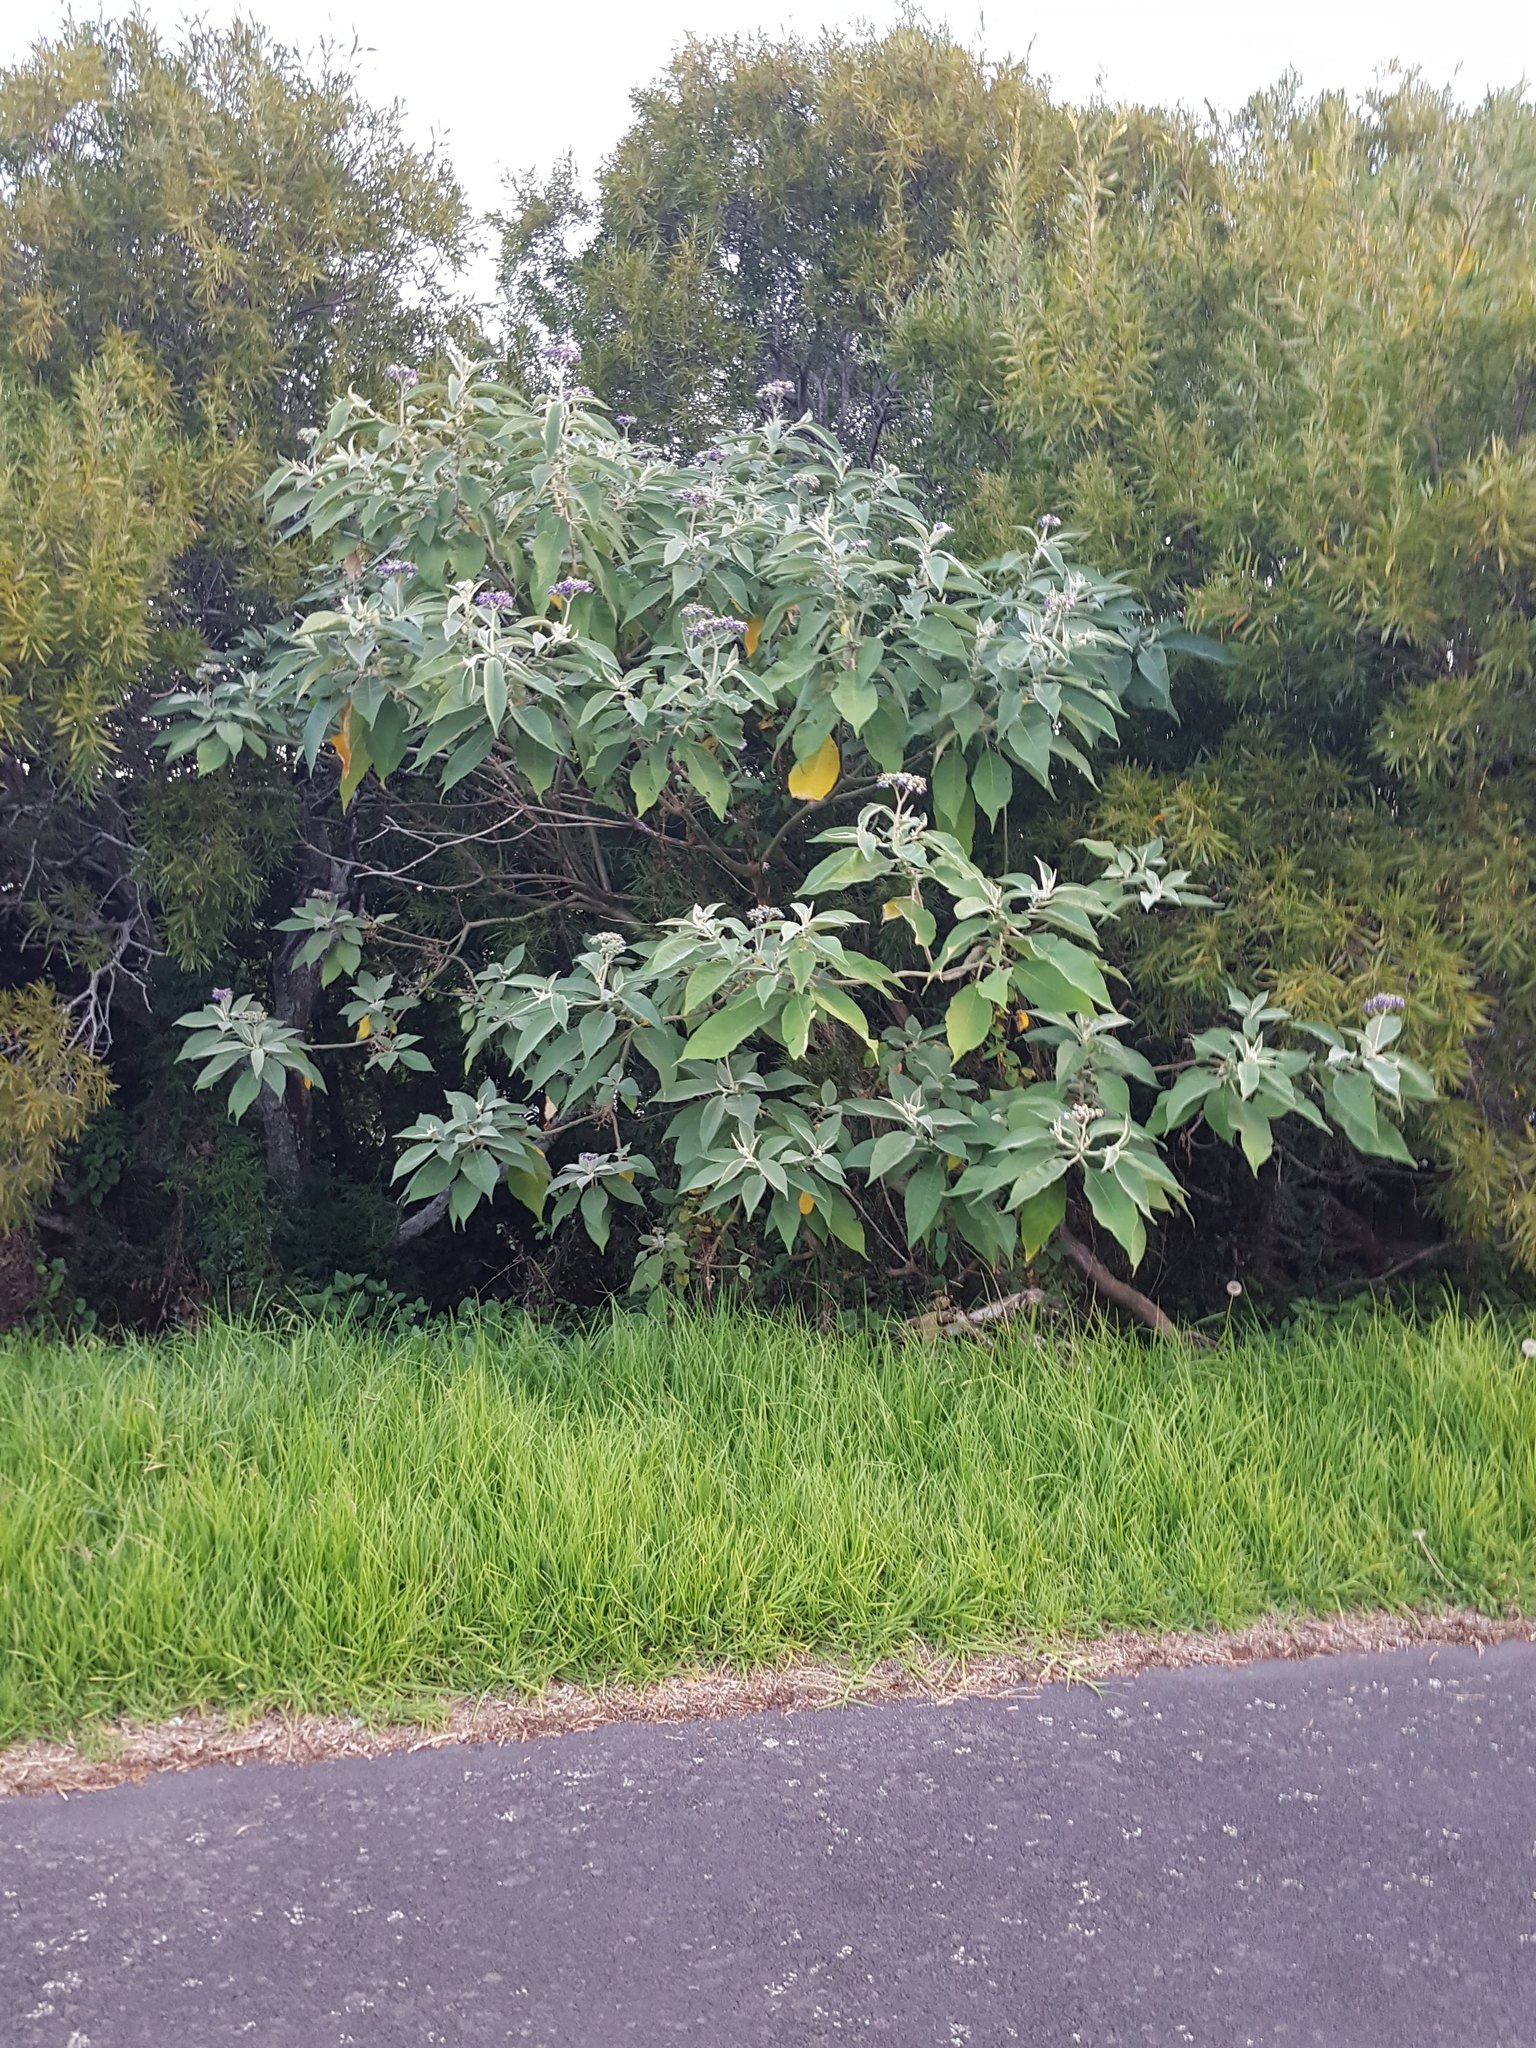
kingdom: Plantae
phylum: Tracheophyta
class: Magnoliopsida
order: Solanales
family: Solanaceae
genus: Solanum
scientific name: Solanum mauritianum
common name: Earleaf nightshade
